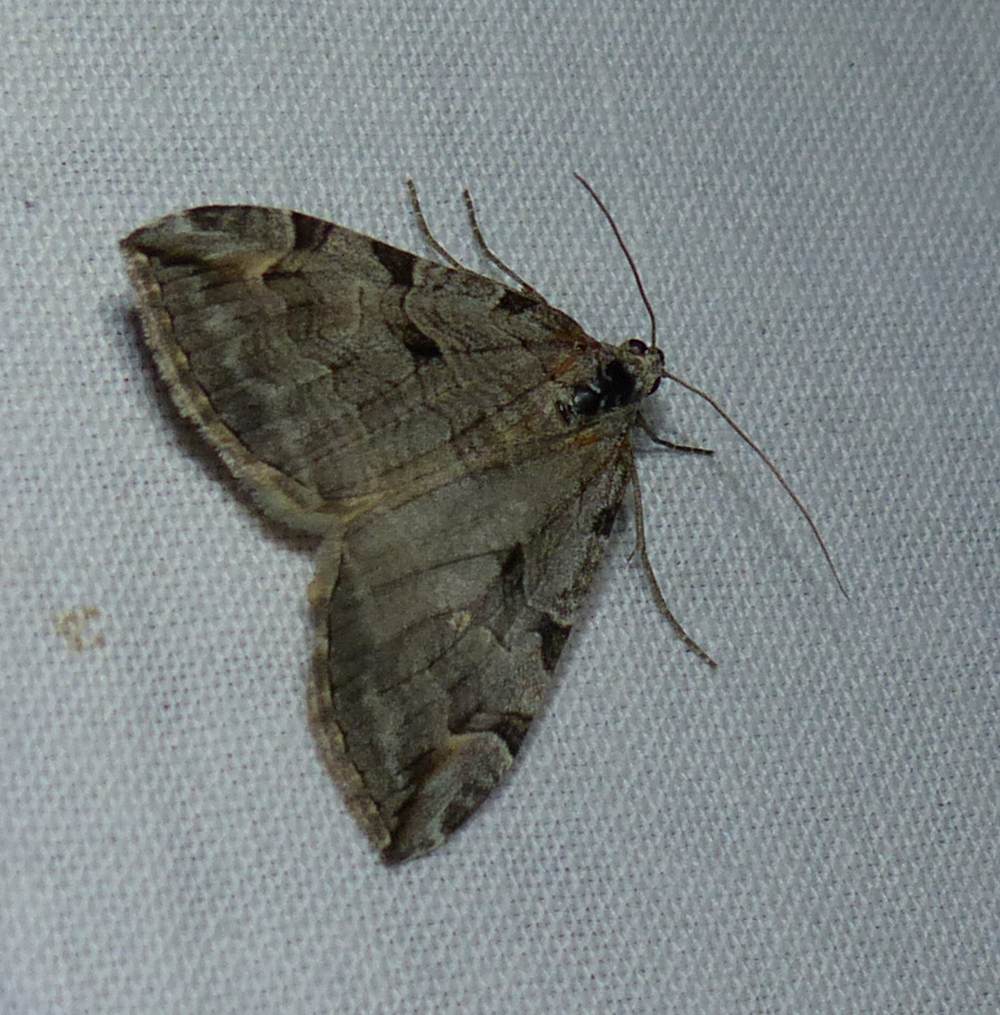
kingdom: Animalia
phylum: Arthropoda
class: Insecta
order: Lepidoptera
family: Geometridae
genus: Aplocera
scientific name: Aplocera plagiata
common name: Treble-bar
